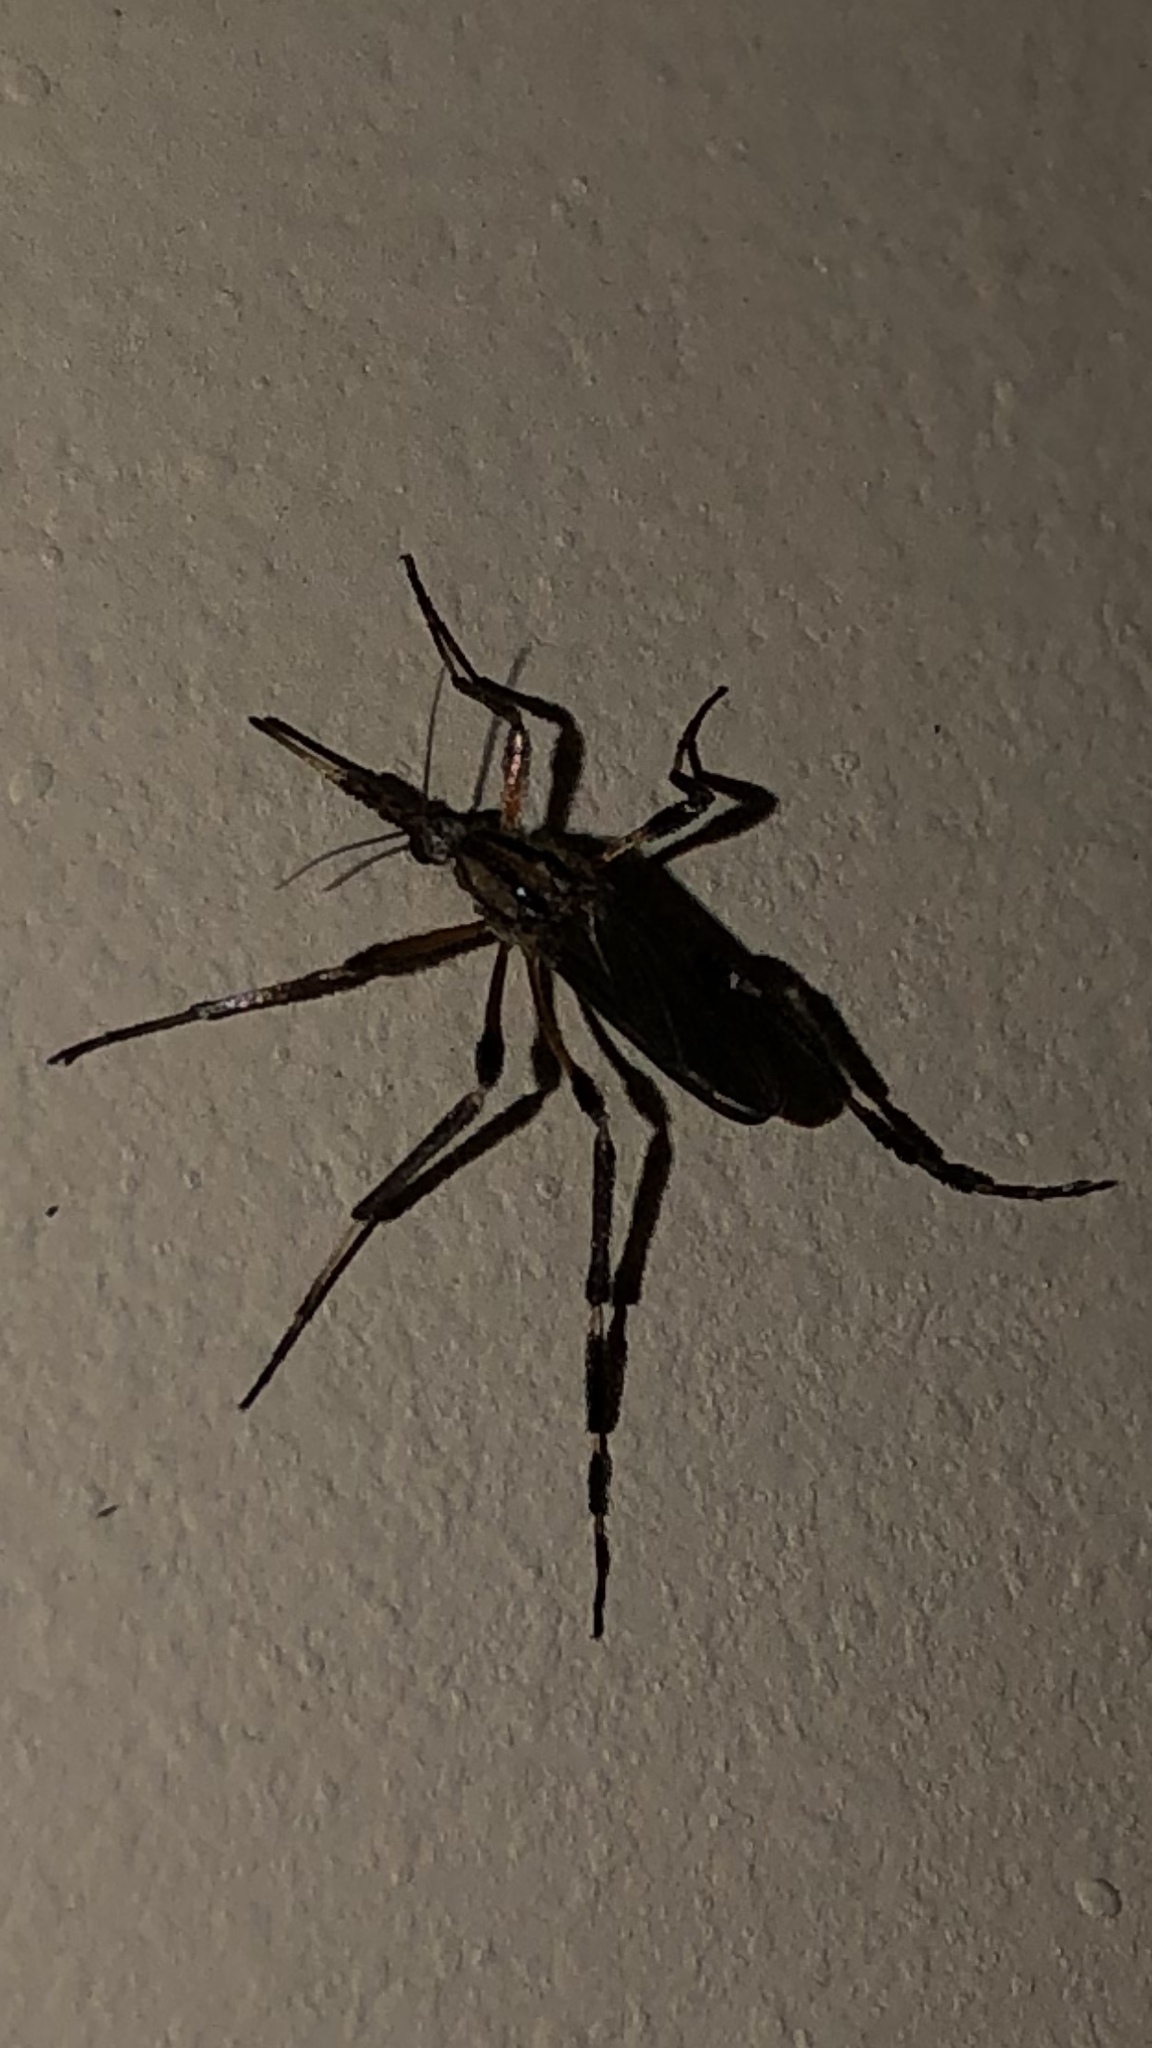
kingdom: Animalia
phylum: Arthropoda
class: Insecta
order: Diptera
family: Culicidae
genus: Psorophora
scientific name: Psorophora ciliata
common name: Gallinipper
